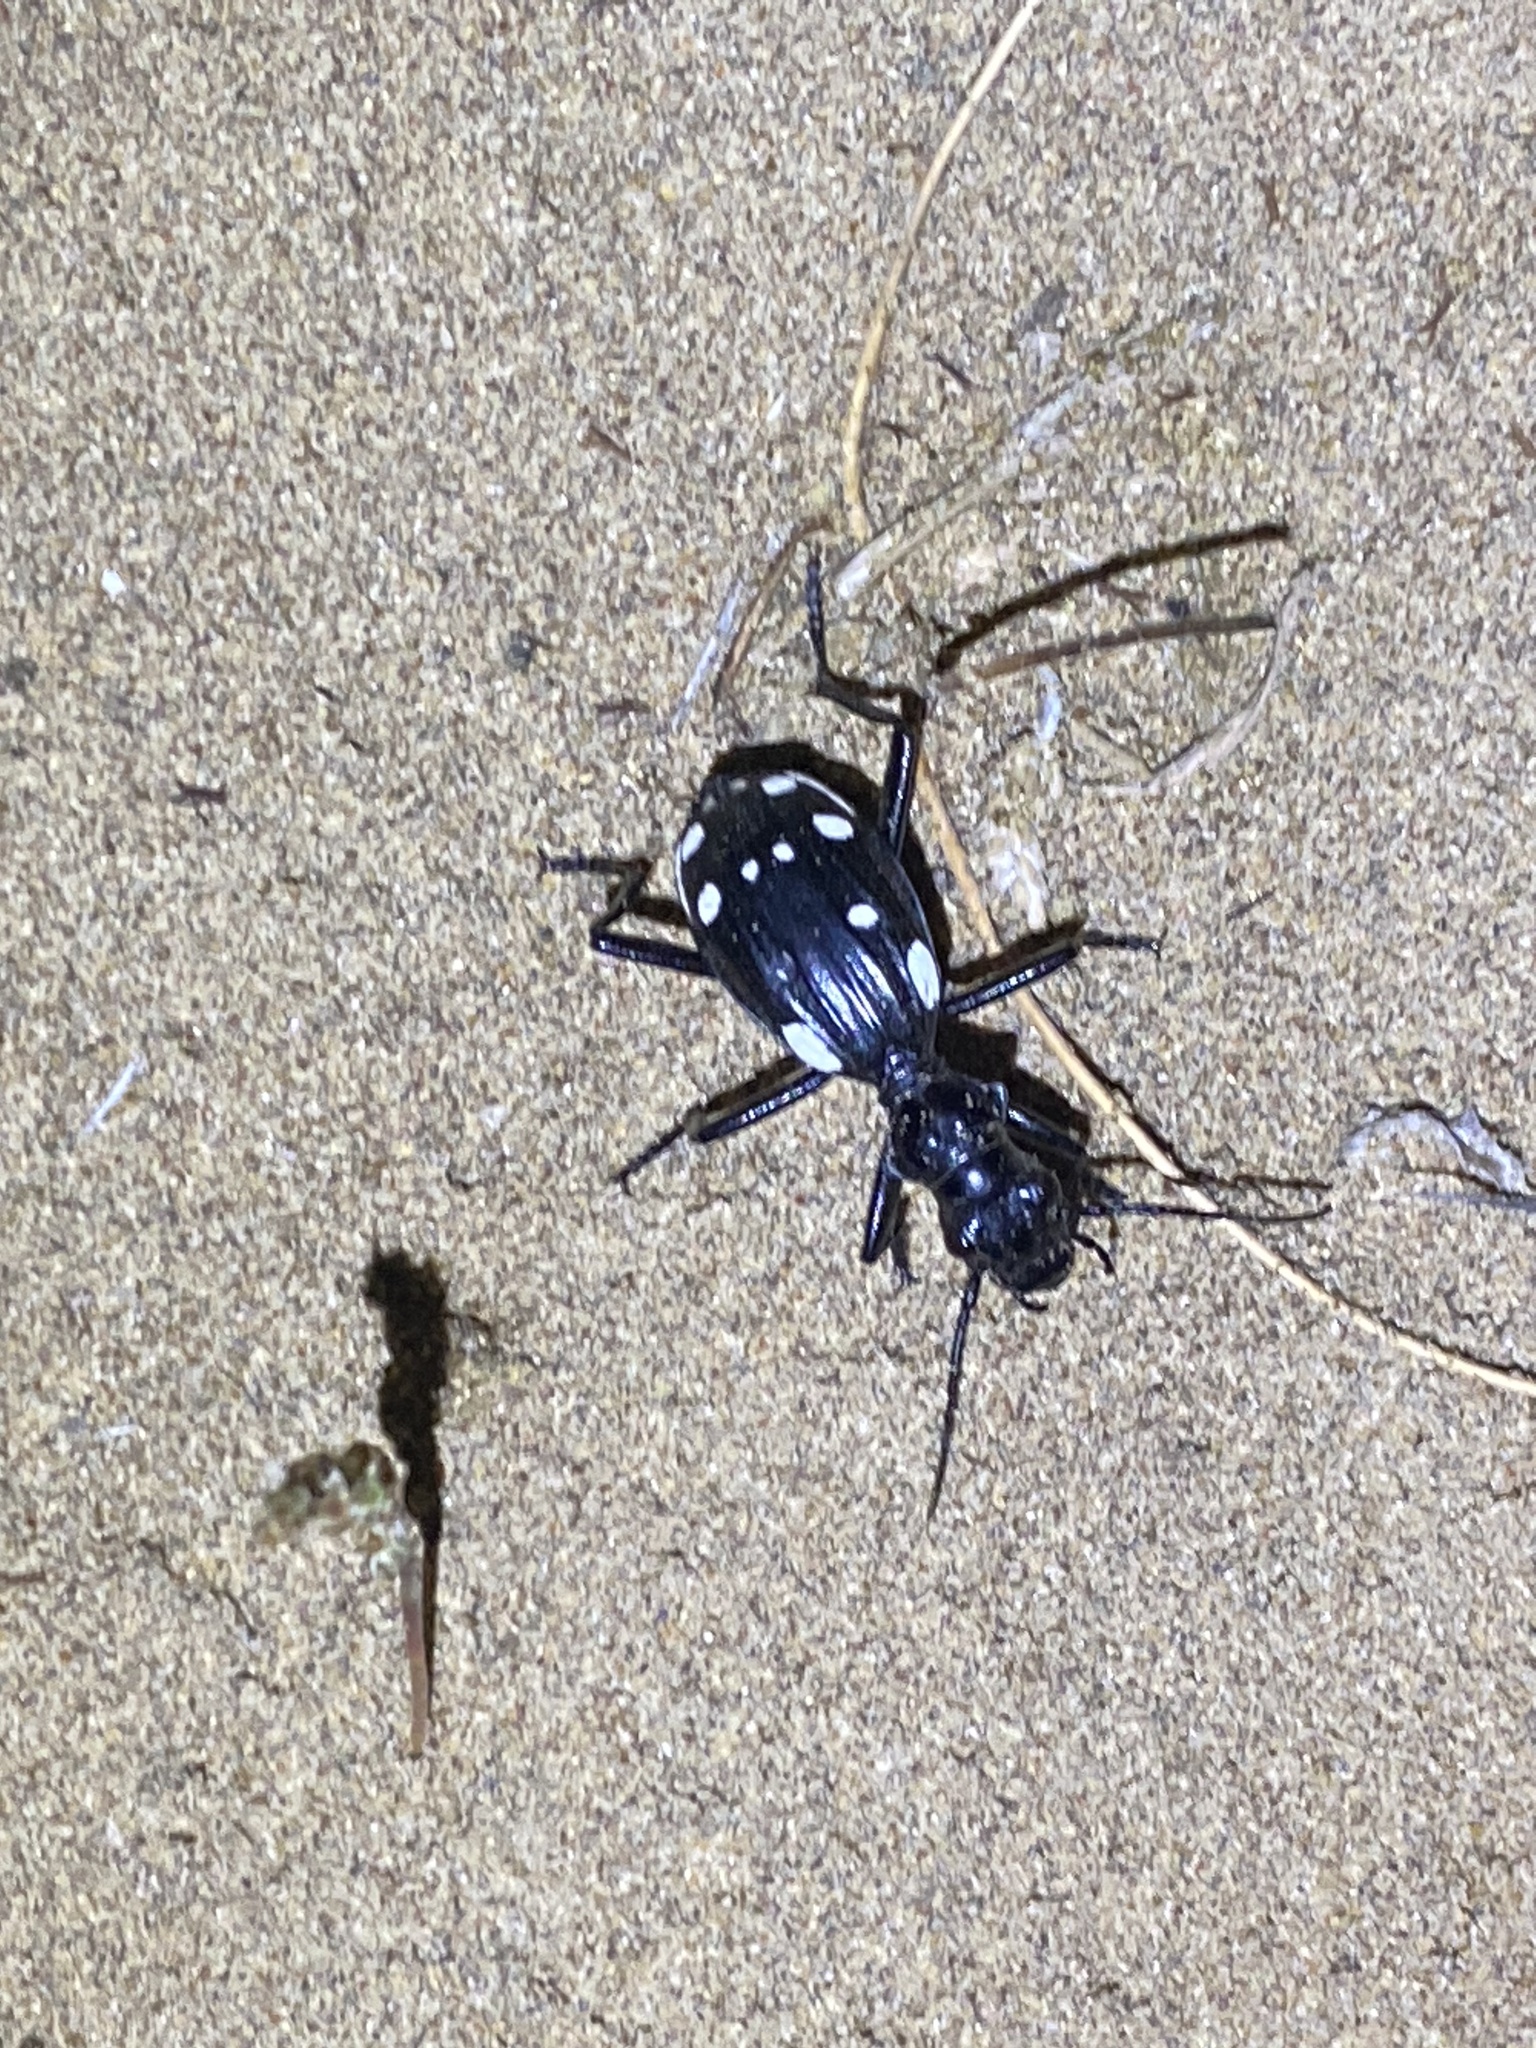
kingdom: Animalia
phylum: Arthropoda
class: Insecta
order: Coleoptera
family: Carabidae
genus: Anthia
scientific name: Anthia duodecimguttata
